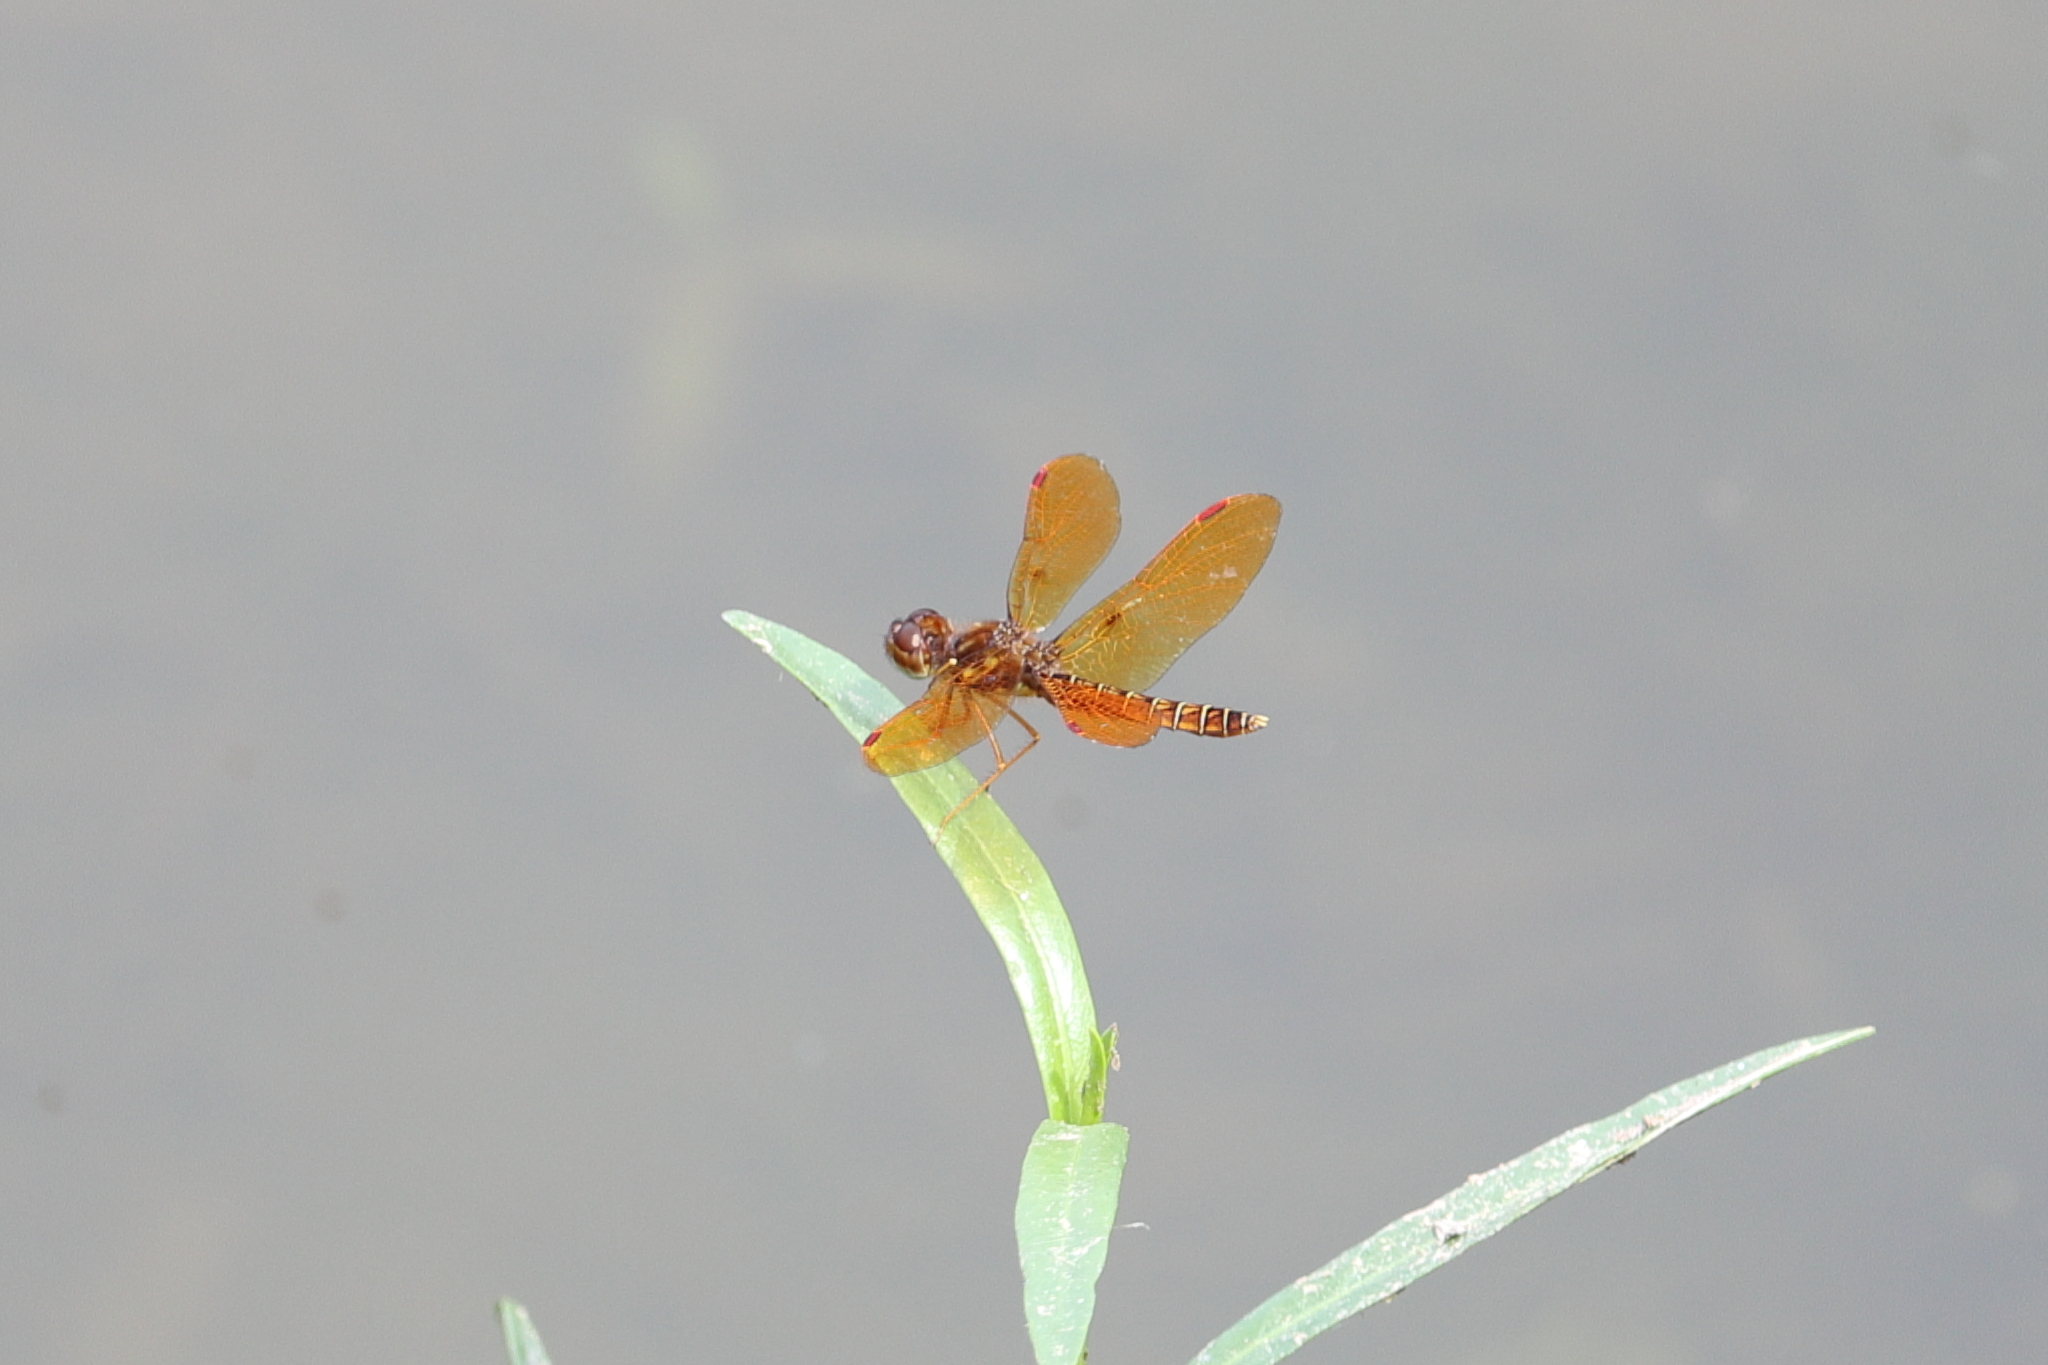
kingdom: Animalia
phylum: Arthropoda
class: Insecta
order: Odonata
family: Libellulidae
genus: Perithemis
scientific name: Perithemis tenera
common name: Eastern amberwing
